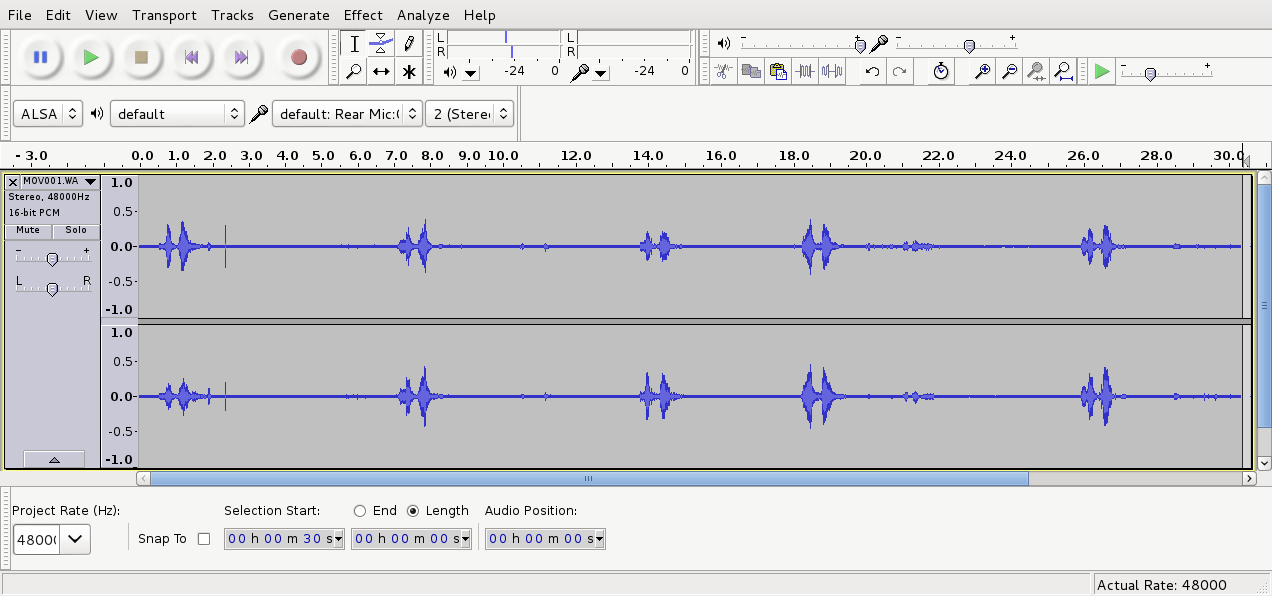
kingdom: Animalia
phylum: Chordata
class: Aves
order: Strigiformes
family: Strigidae
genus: Ninox
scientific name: Ninox novaeseelandiae
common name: Morepork
